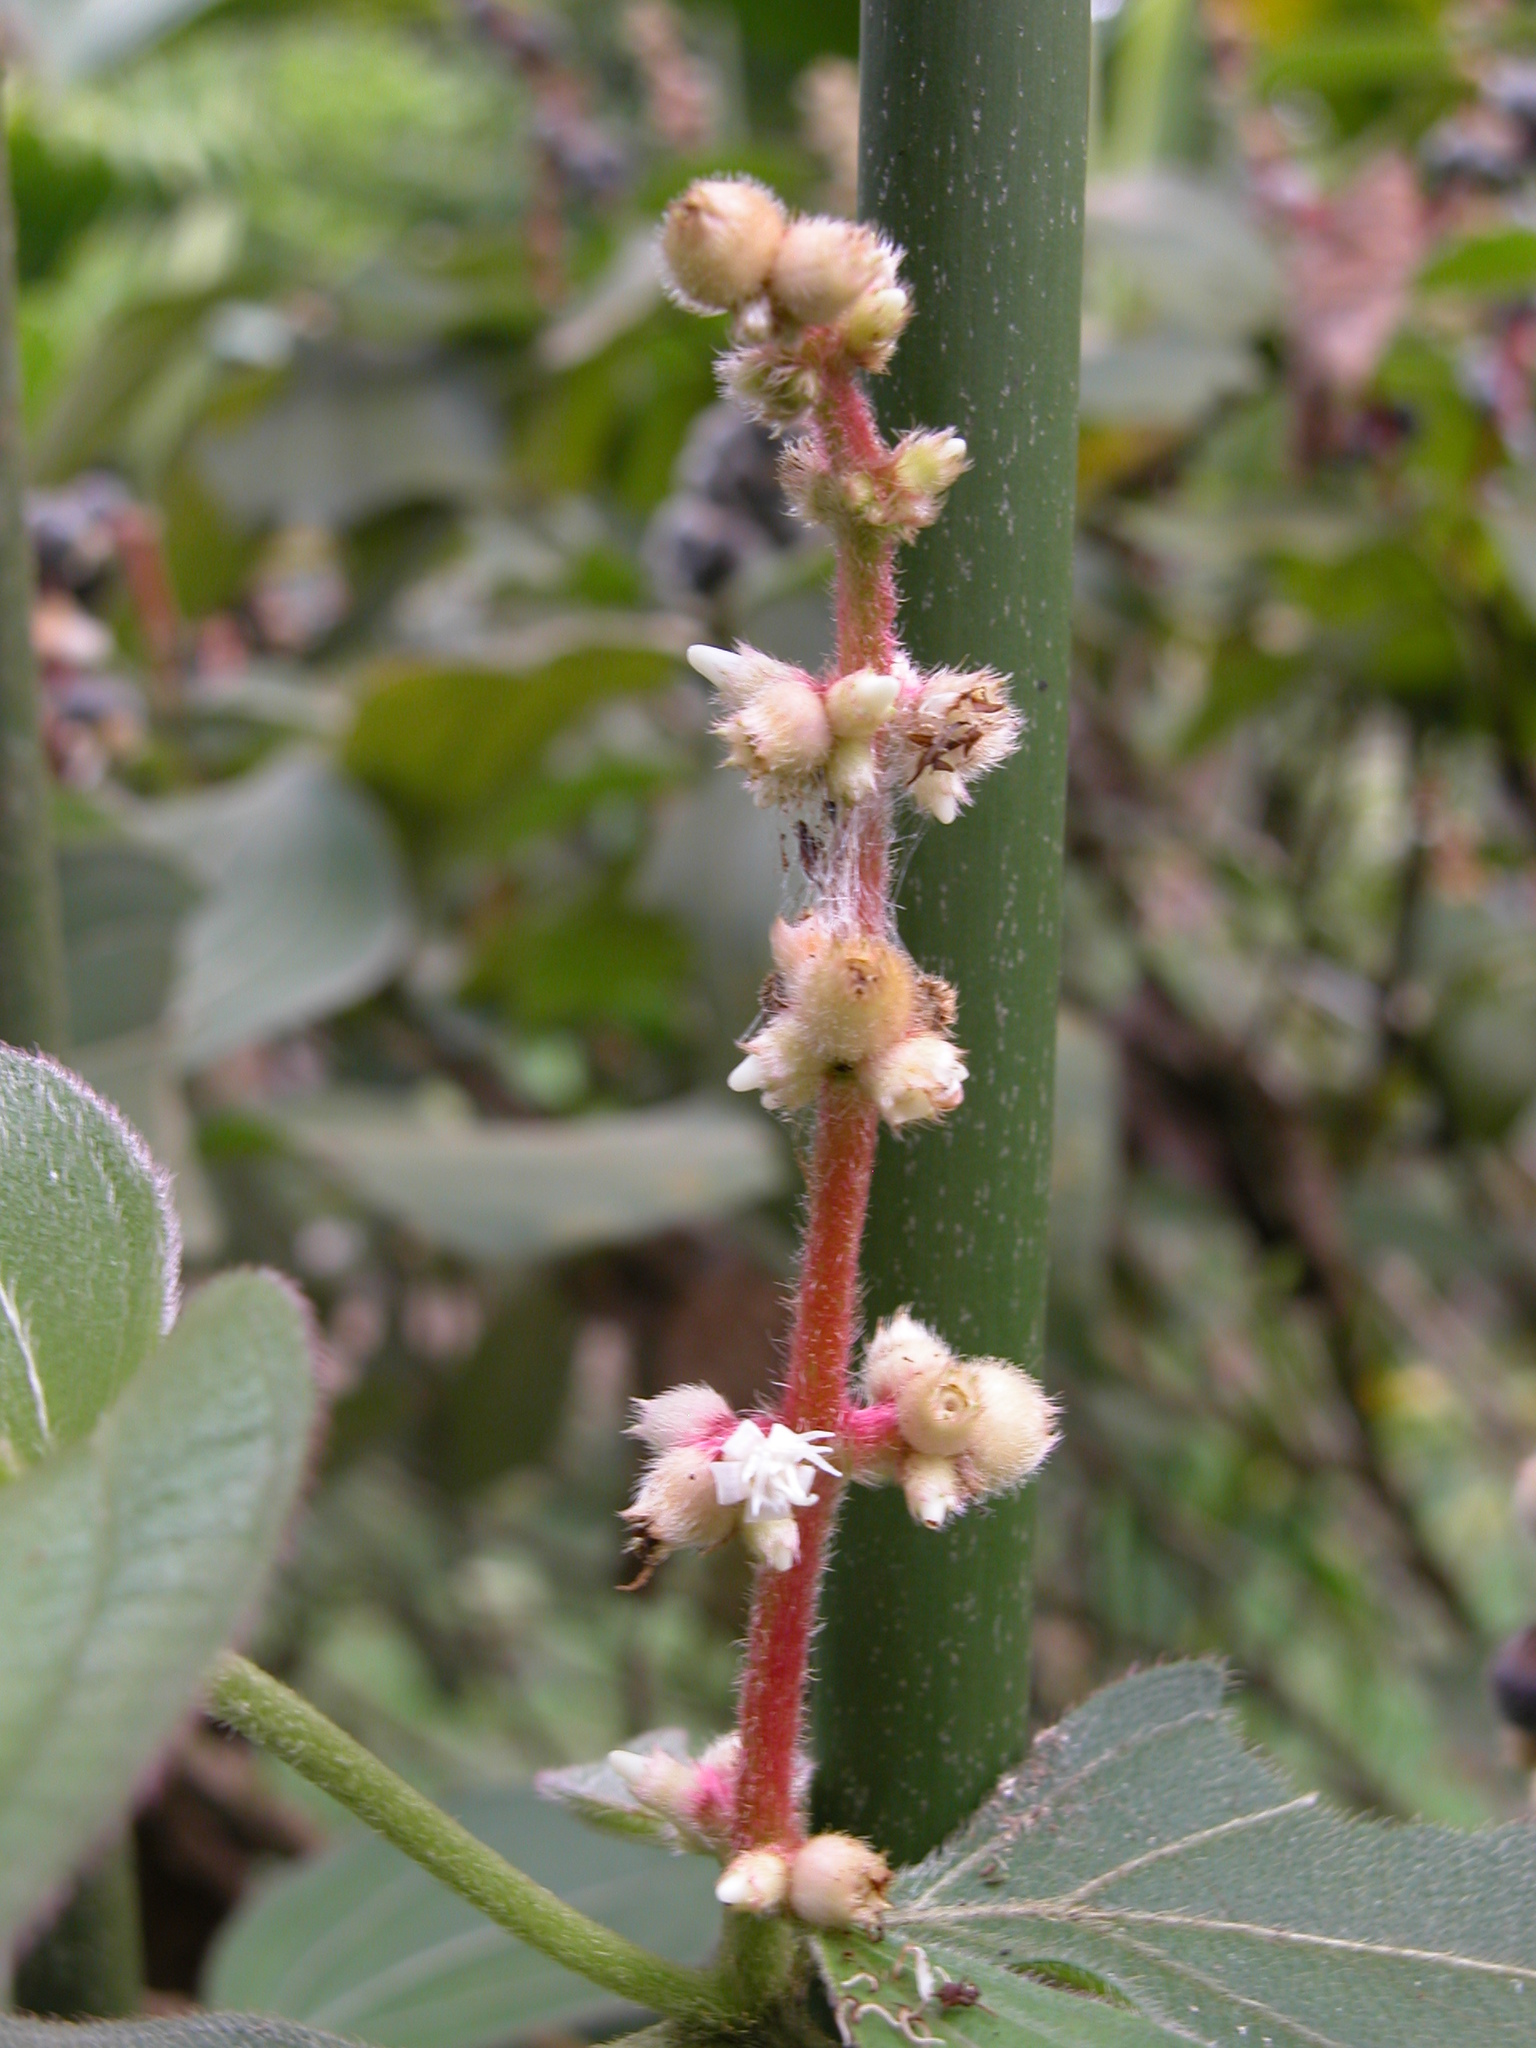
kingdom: Plantae
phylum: Tracheophyta
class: Magnoliopsida
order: Myrtales
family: Melastomataceae
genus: Miconia
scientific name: Miconia nervosa
